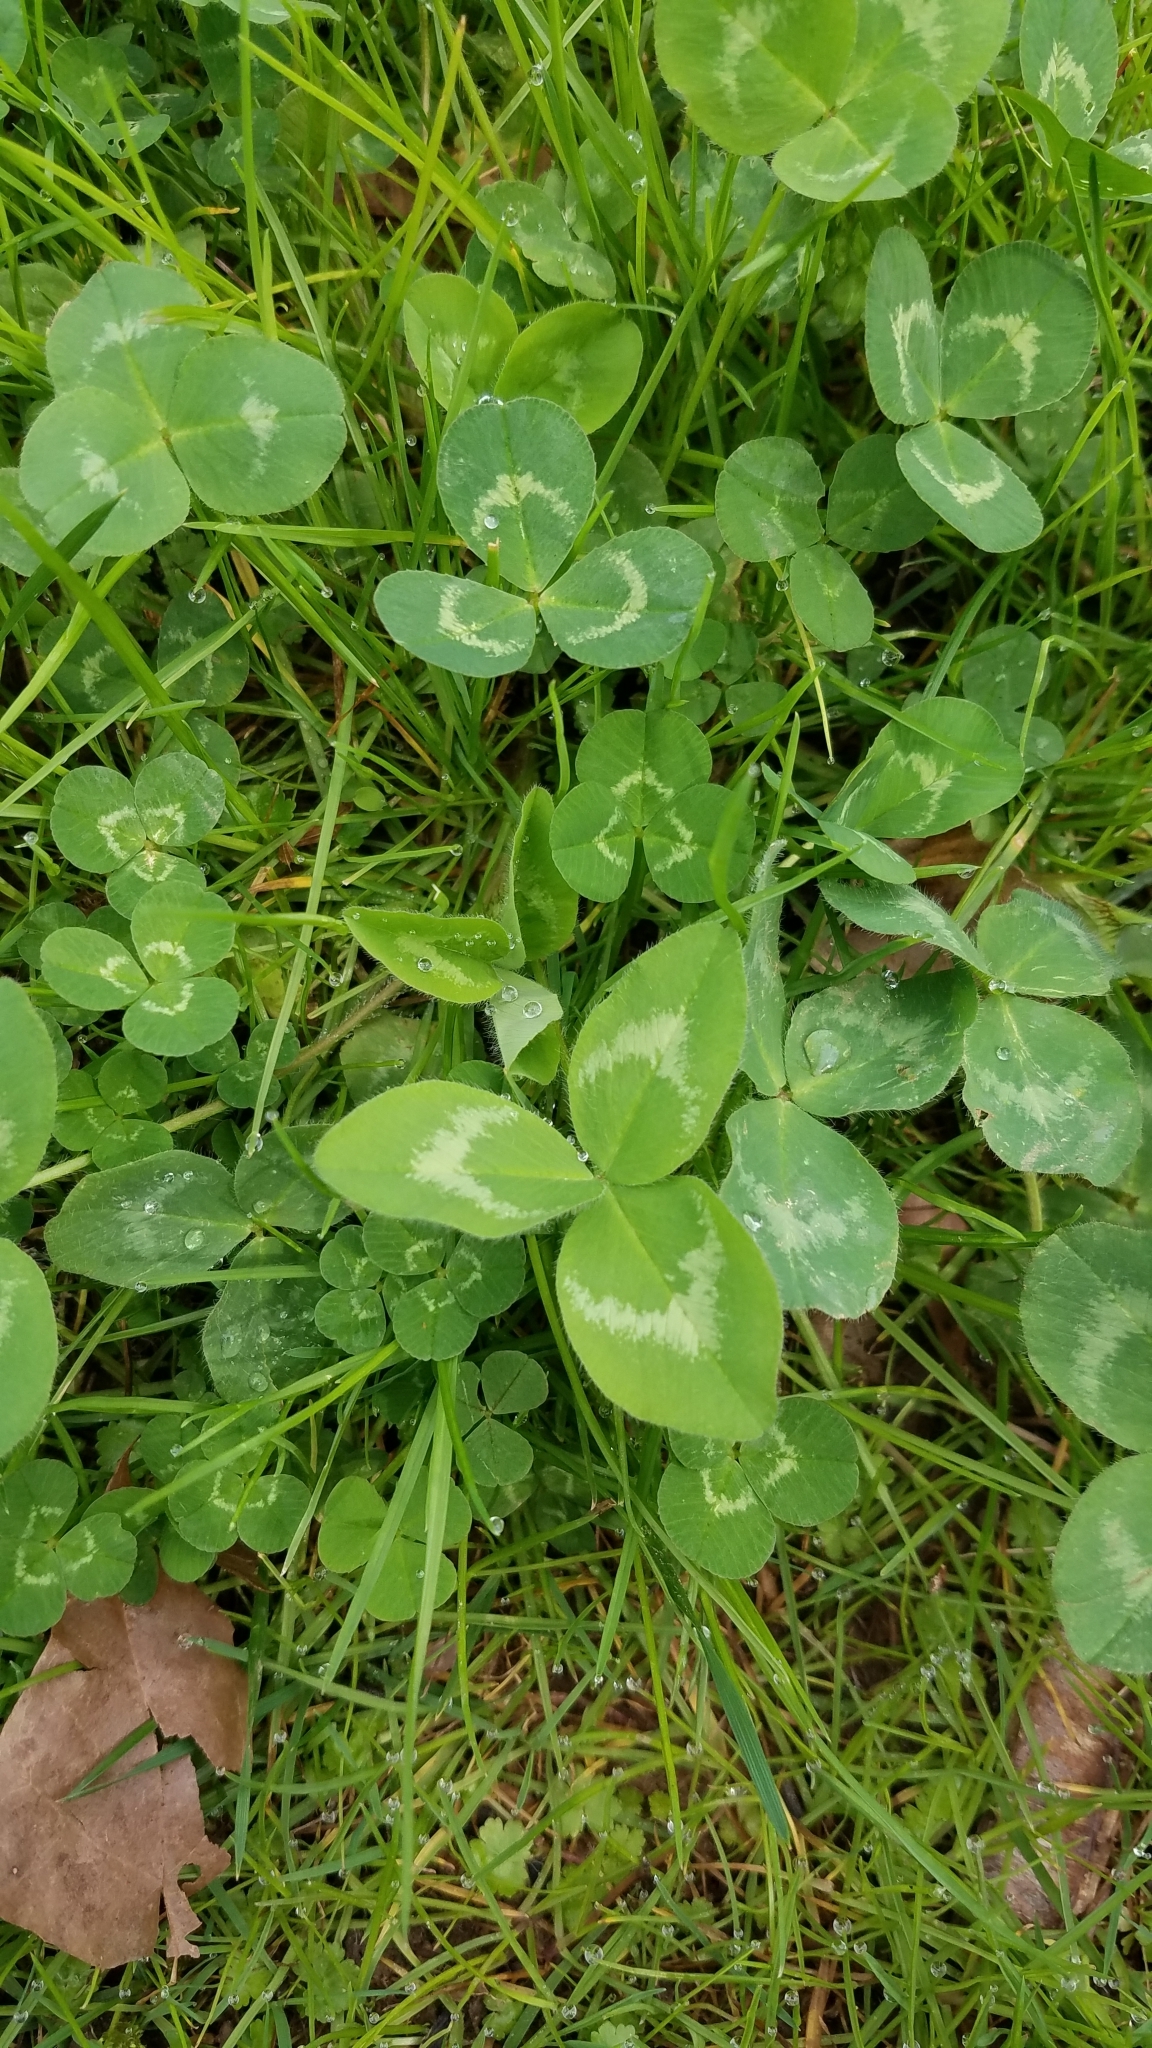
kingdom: Plantae
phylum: Tracheophyta
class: Magnoliopsida
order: Fabales
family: Fabaceae
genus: Trifolium
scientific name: Trifolium pratense
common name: Red clover
